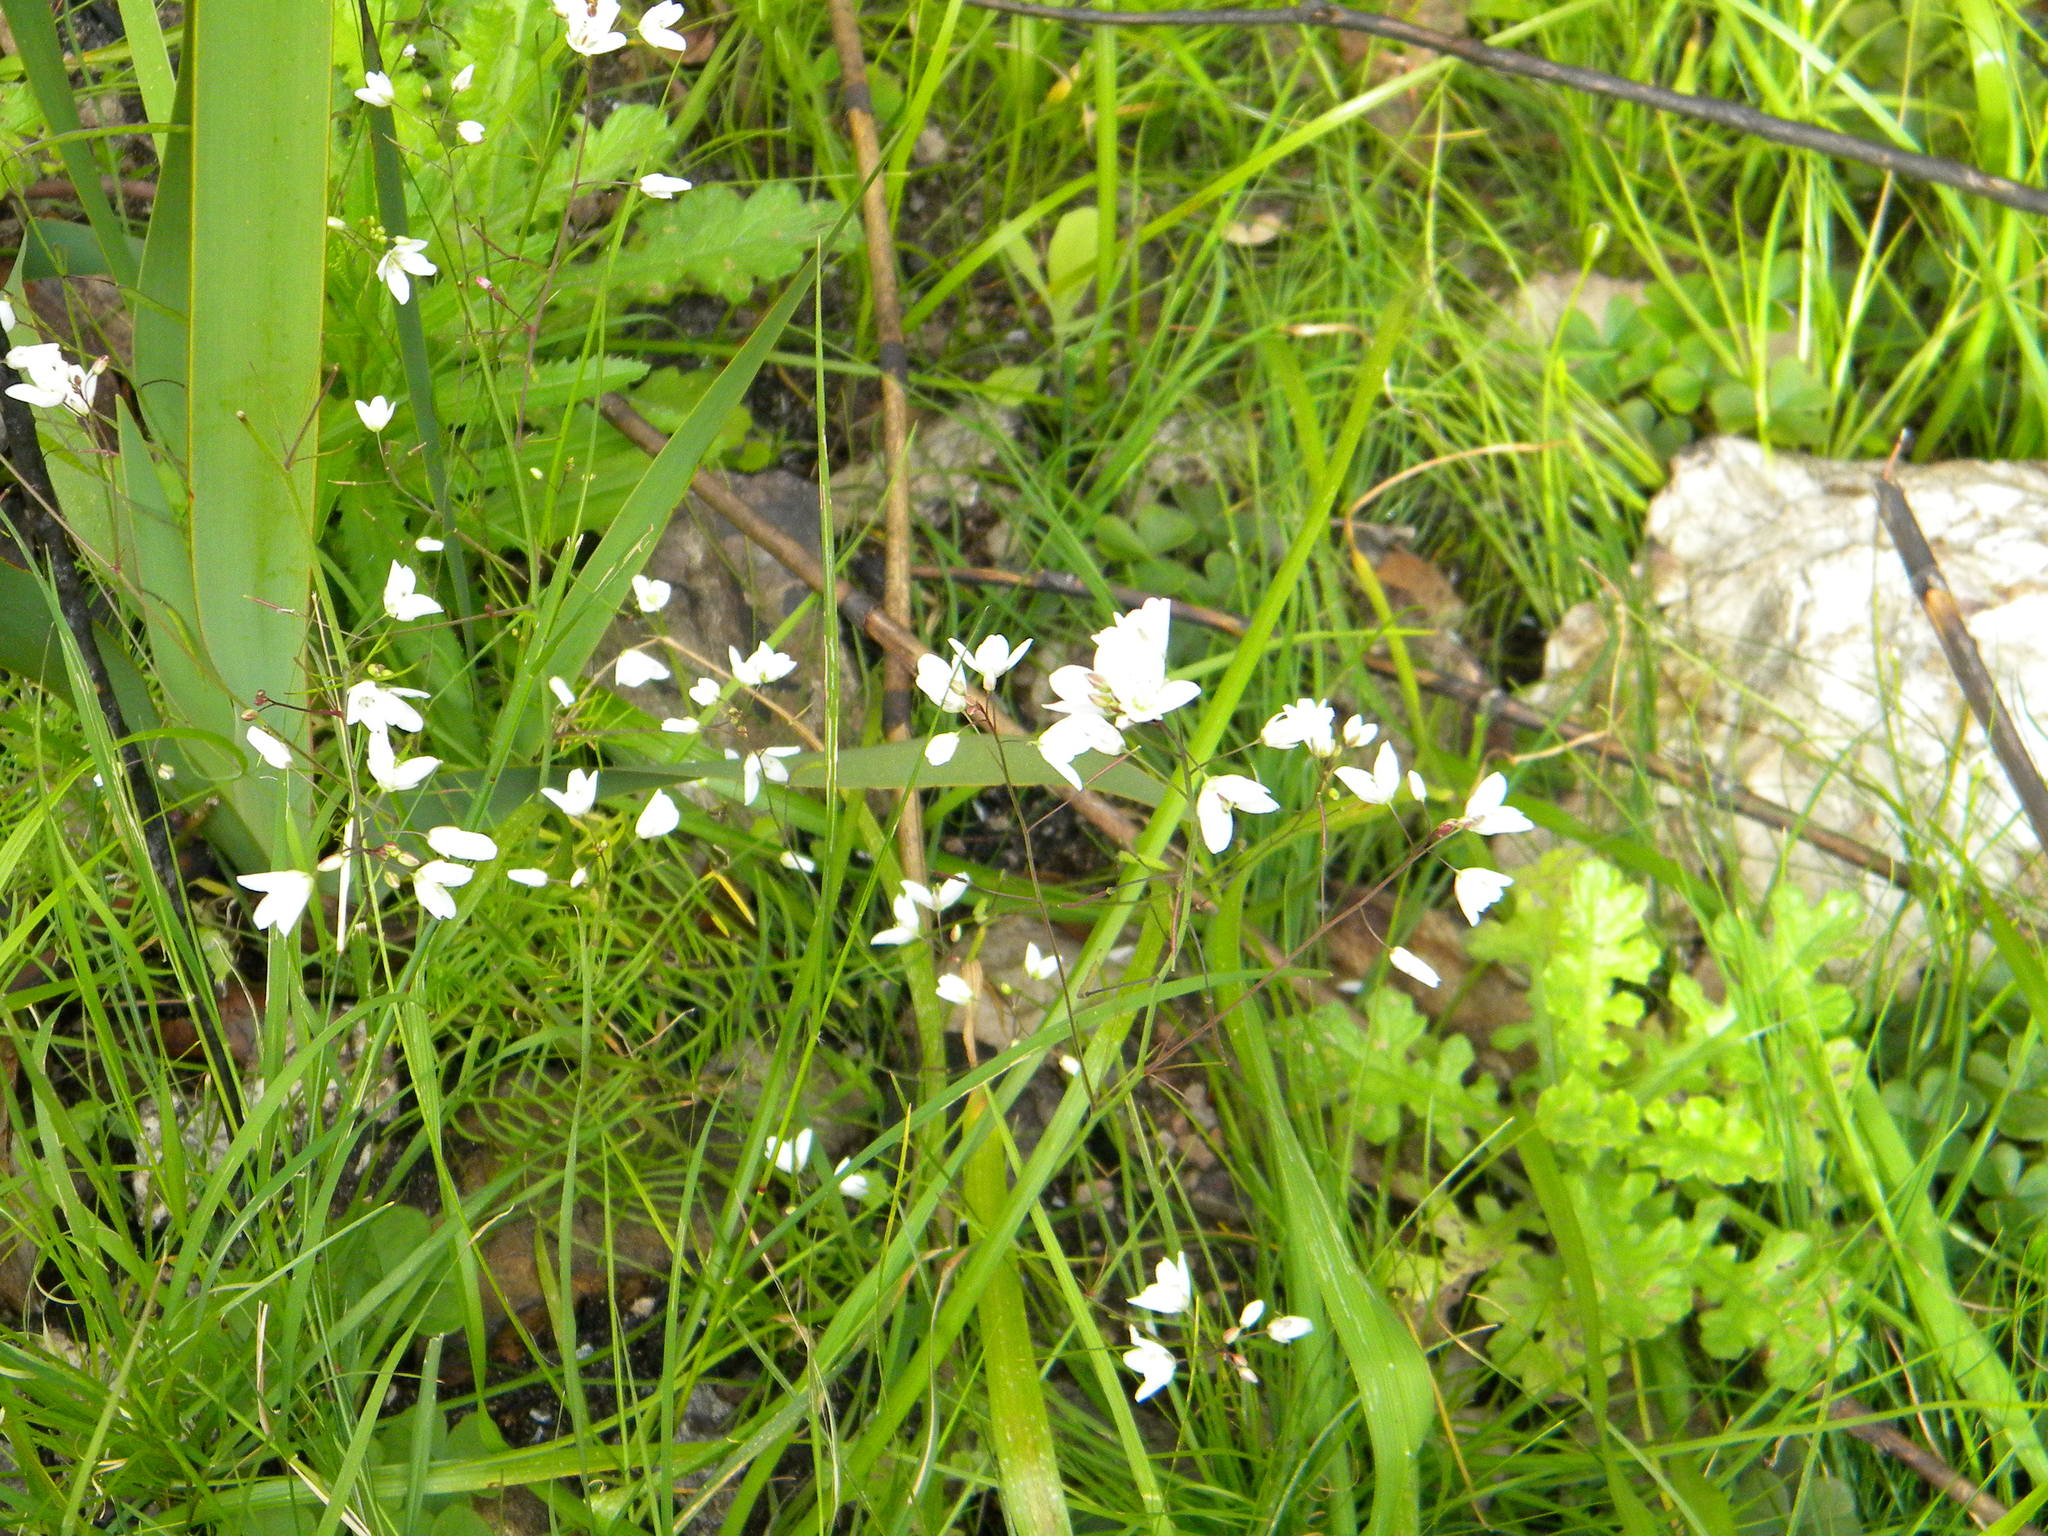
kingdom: Plantae
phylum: Tracheophyta
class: Magnoliopsida
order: Brassicales
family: Brassicaceae
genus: Heliophila
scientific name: Heliophila meyeri
